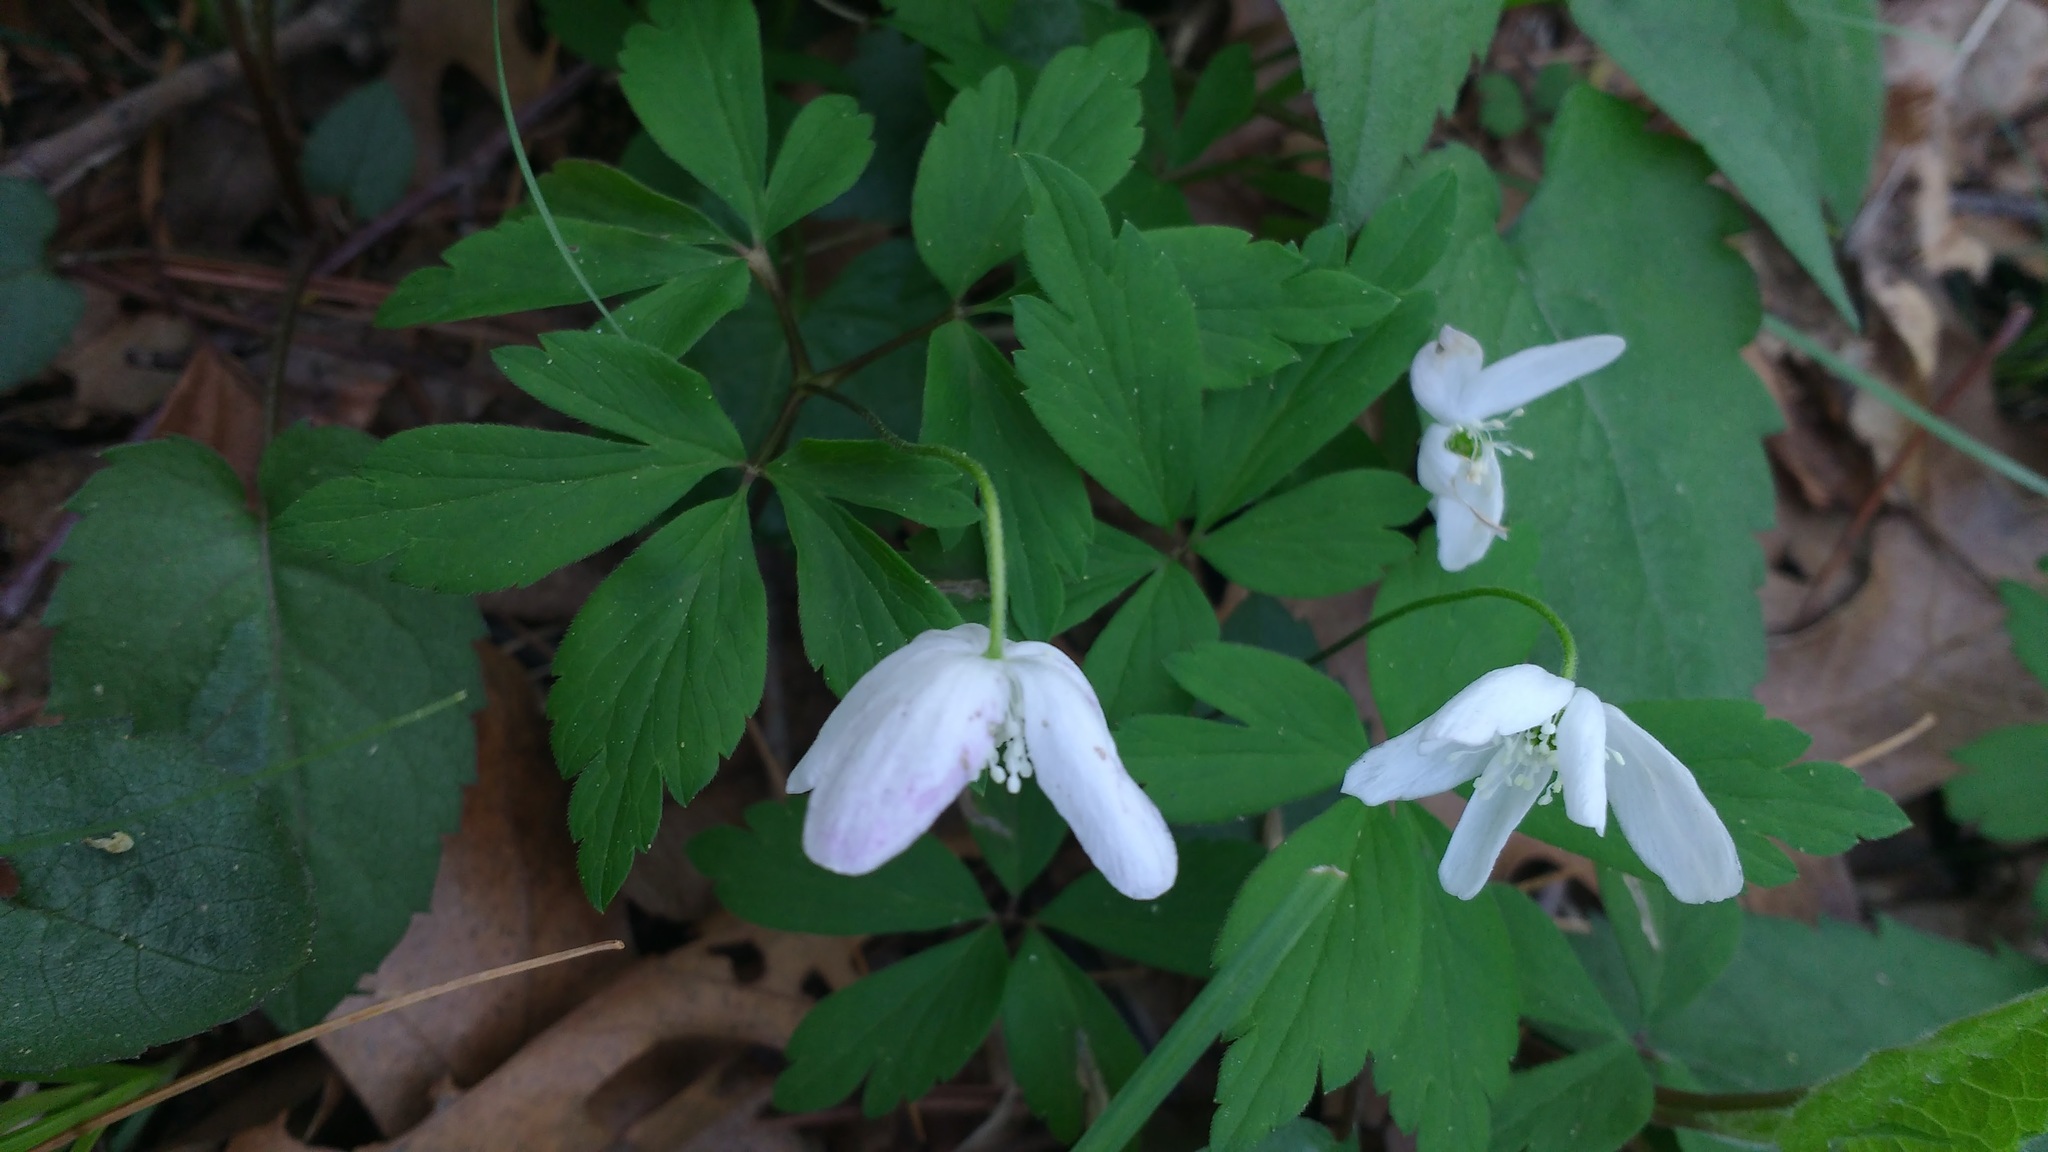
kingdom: Plantae
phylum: Tracheophyta
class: Magnoliopsida
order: Ranunculales
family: Ranunculaceae
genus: Anemone
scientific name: Anemone quinquefolia
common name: Wood anemone
